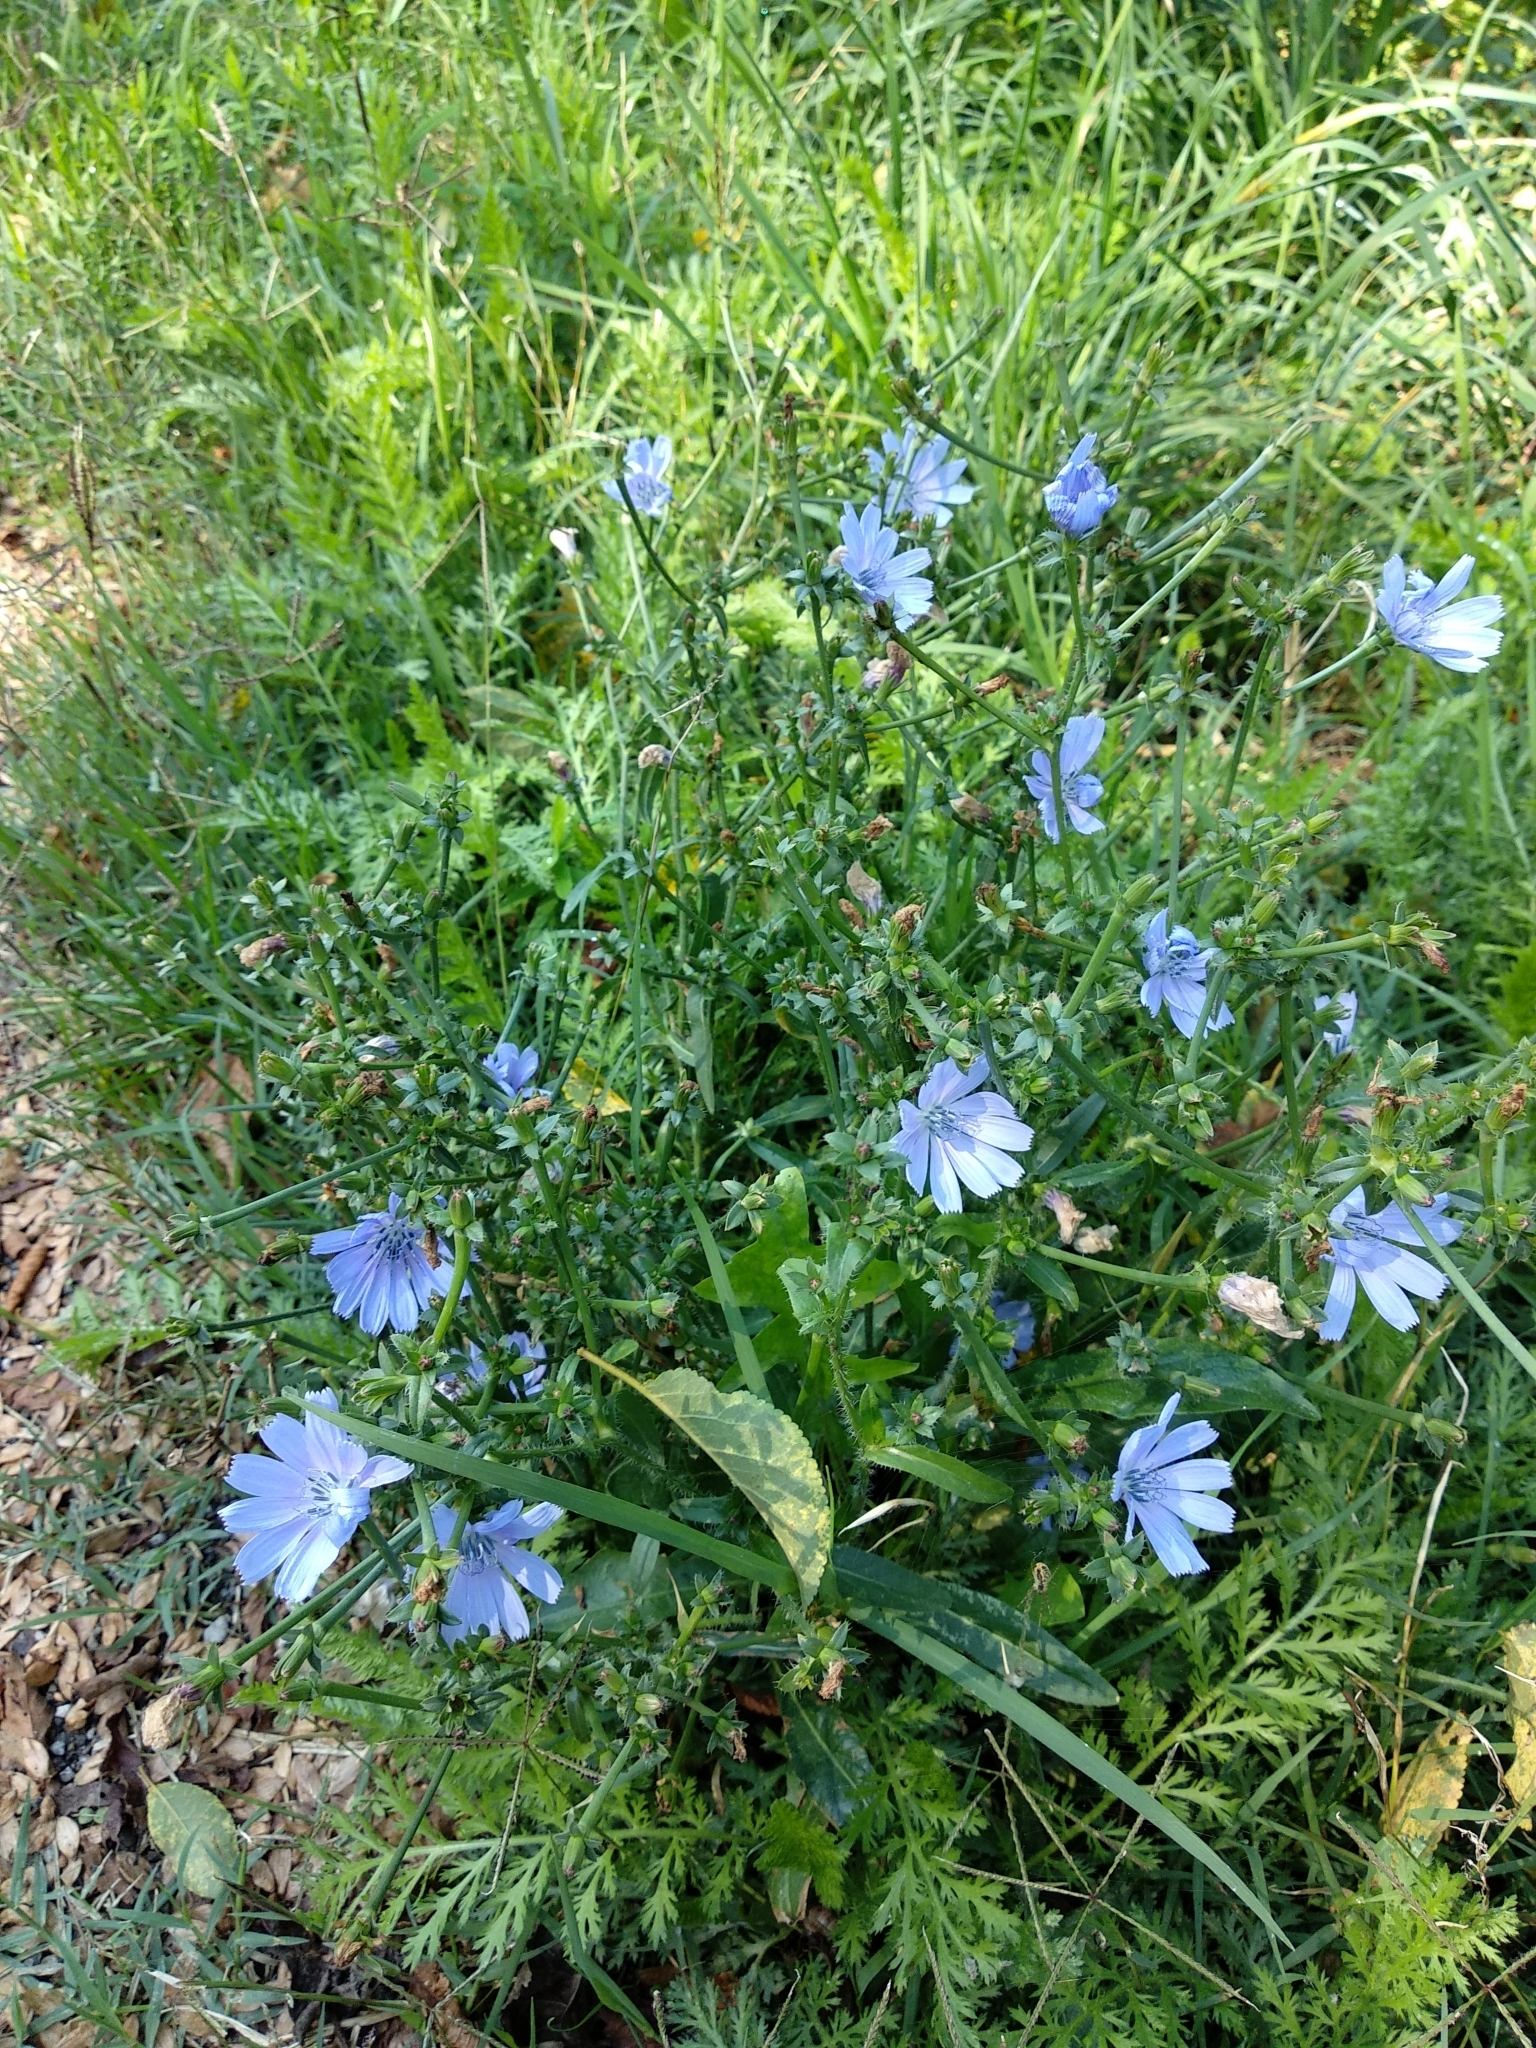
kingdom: Plantae
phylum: Tracheophyta
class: Magnoliopsida
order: Asterales
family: Asteraceae
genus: Cichorium
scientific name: Cichorium intybus
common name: Chicory
